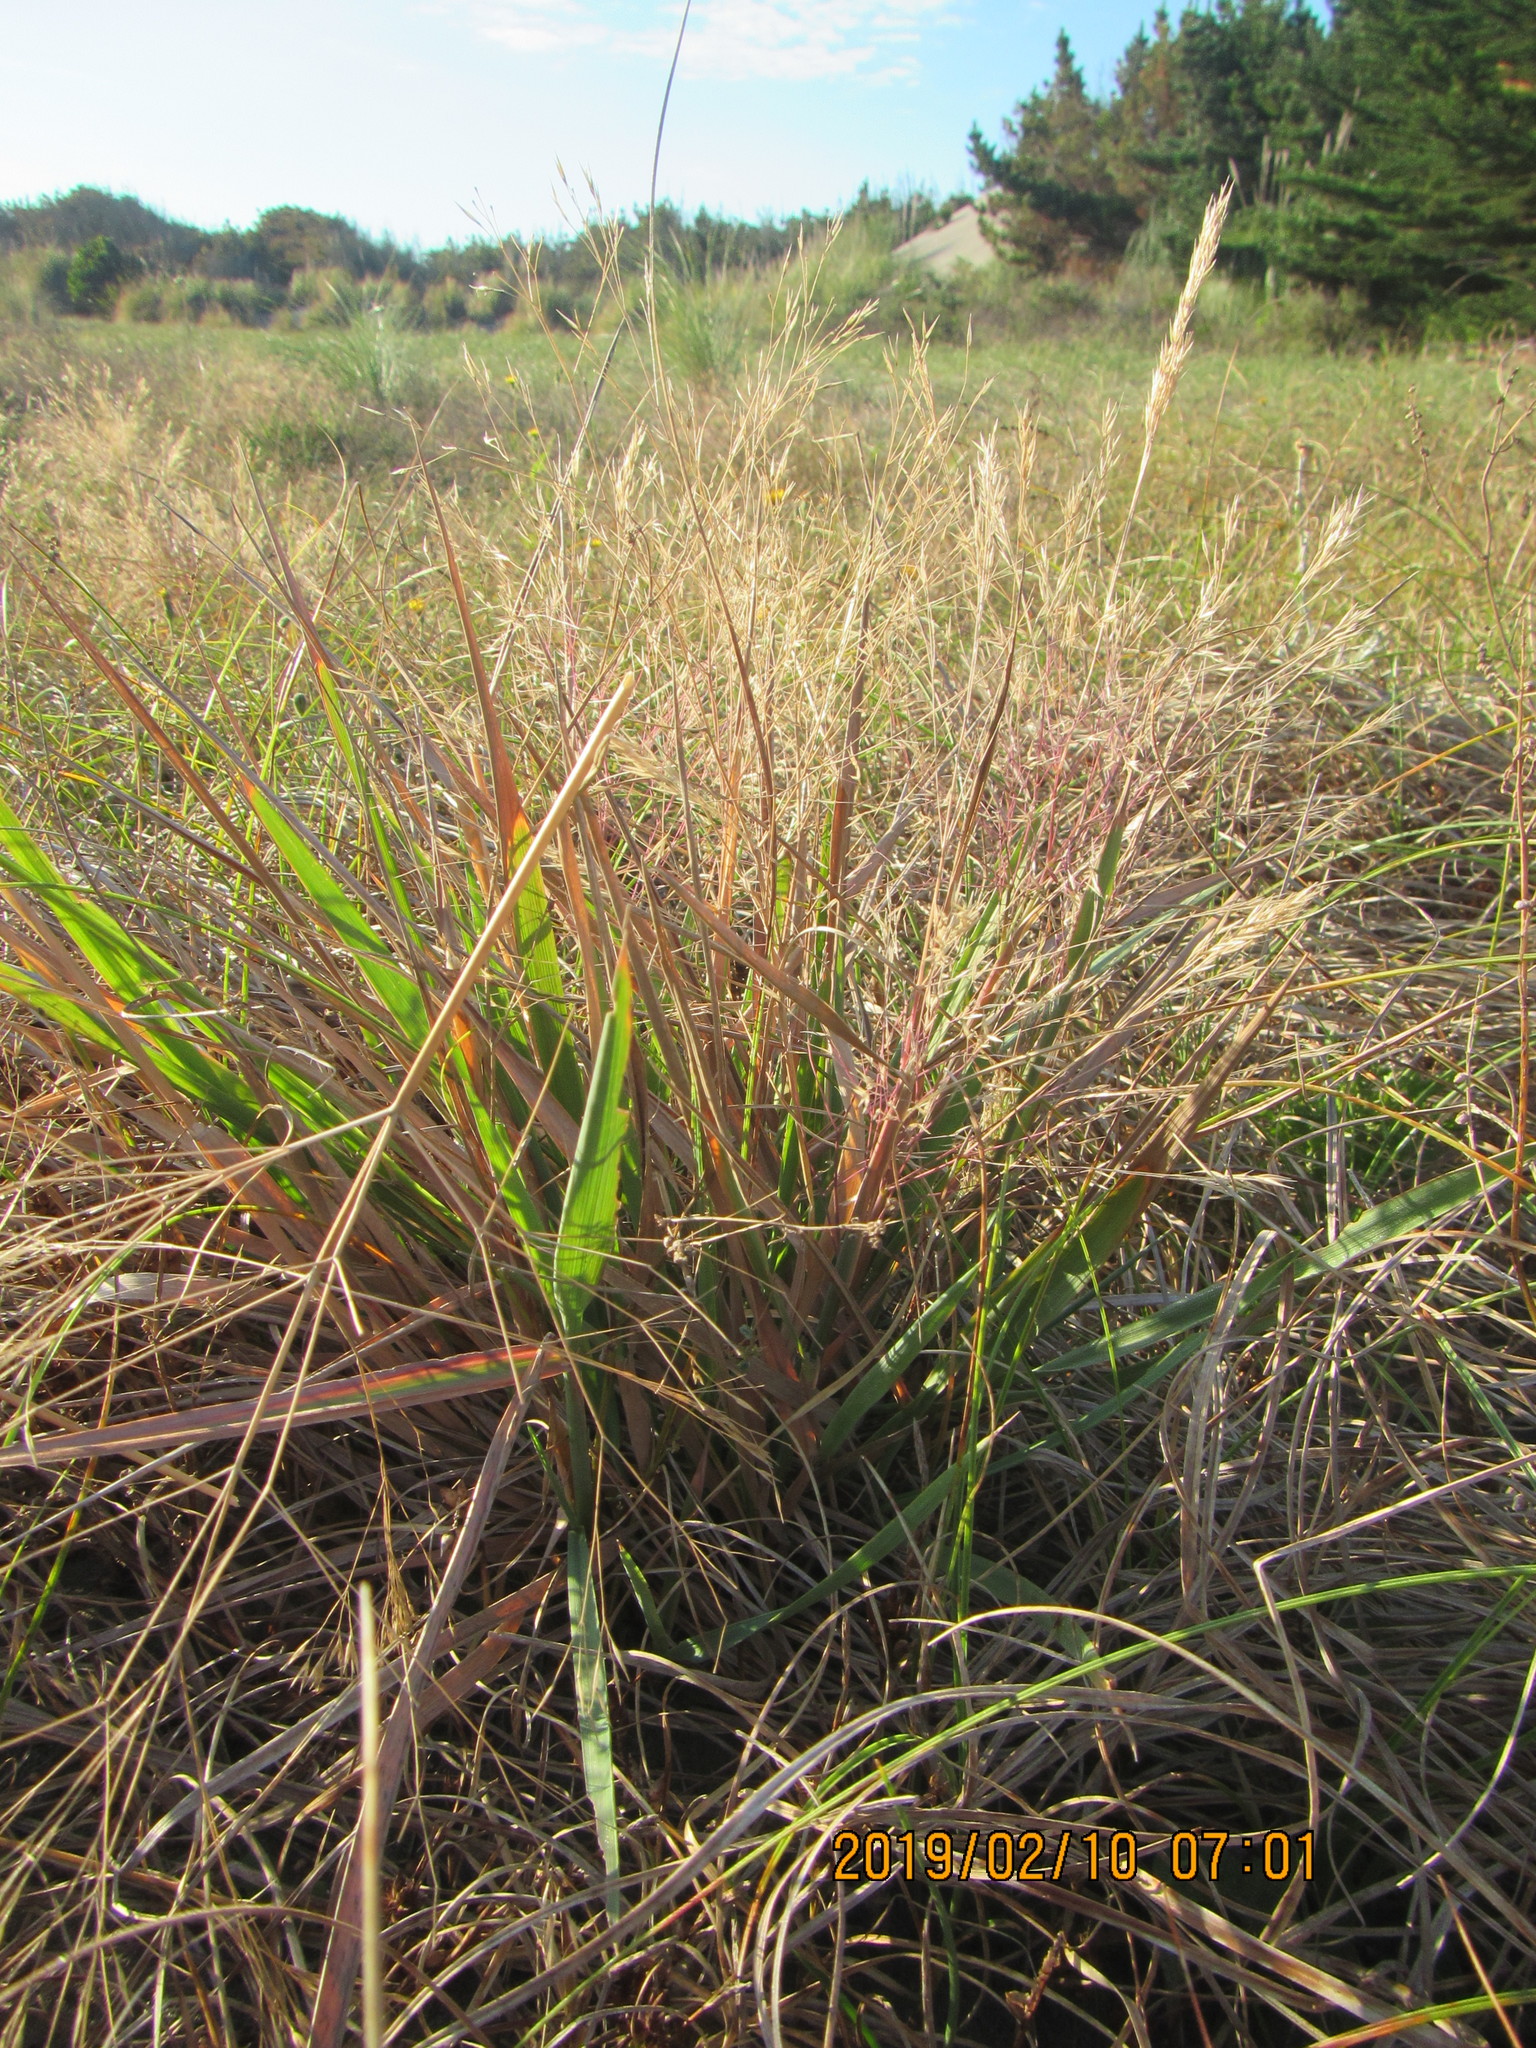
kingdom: Plantae
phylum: Tracheophyta
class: Liliopsida
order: Poales
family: Poaceae
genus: Lachnagrostis
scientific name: Lachnagrostis billardierei
